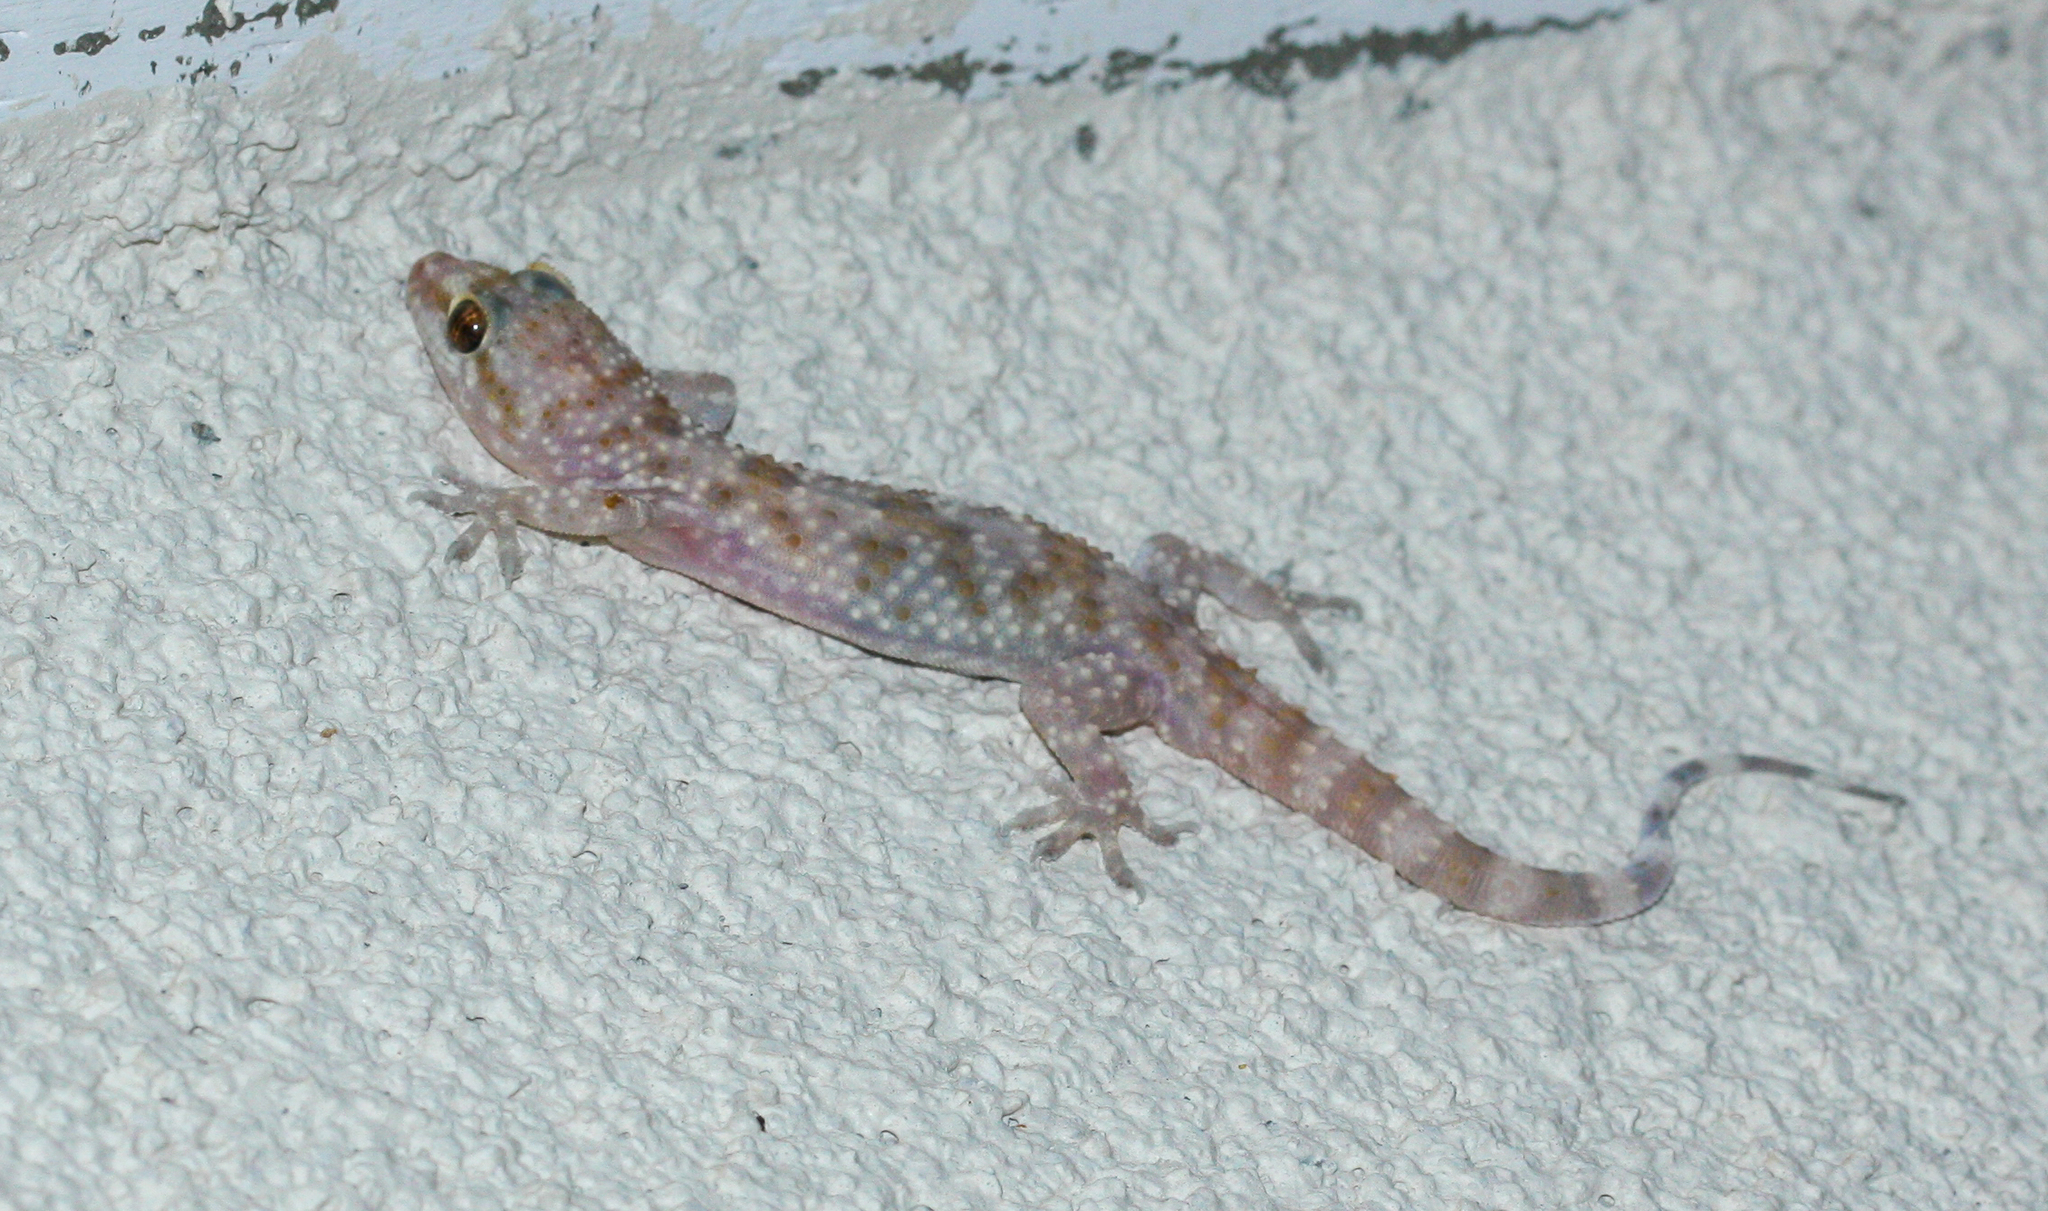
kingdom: Animalia
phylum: Chordata
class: Squamata
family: Gekkonidae
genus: Hemidactylus
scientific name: Hemidactylus turcicus
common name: Turkish gecko
